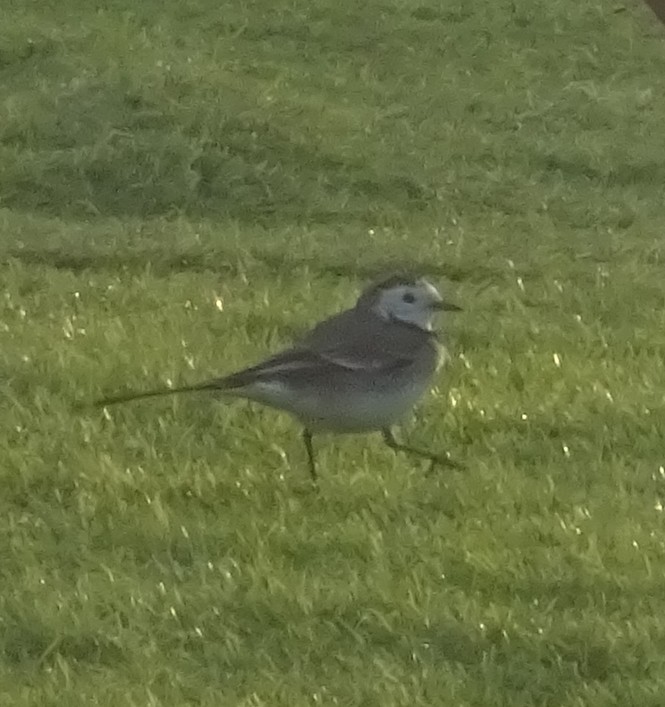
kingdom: Animalia
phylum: Chordata
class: Aves
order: Passeriformes
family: Motacillidae
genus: Motacilla
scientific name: Motacilla alba
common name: White wagtail
